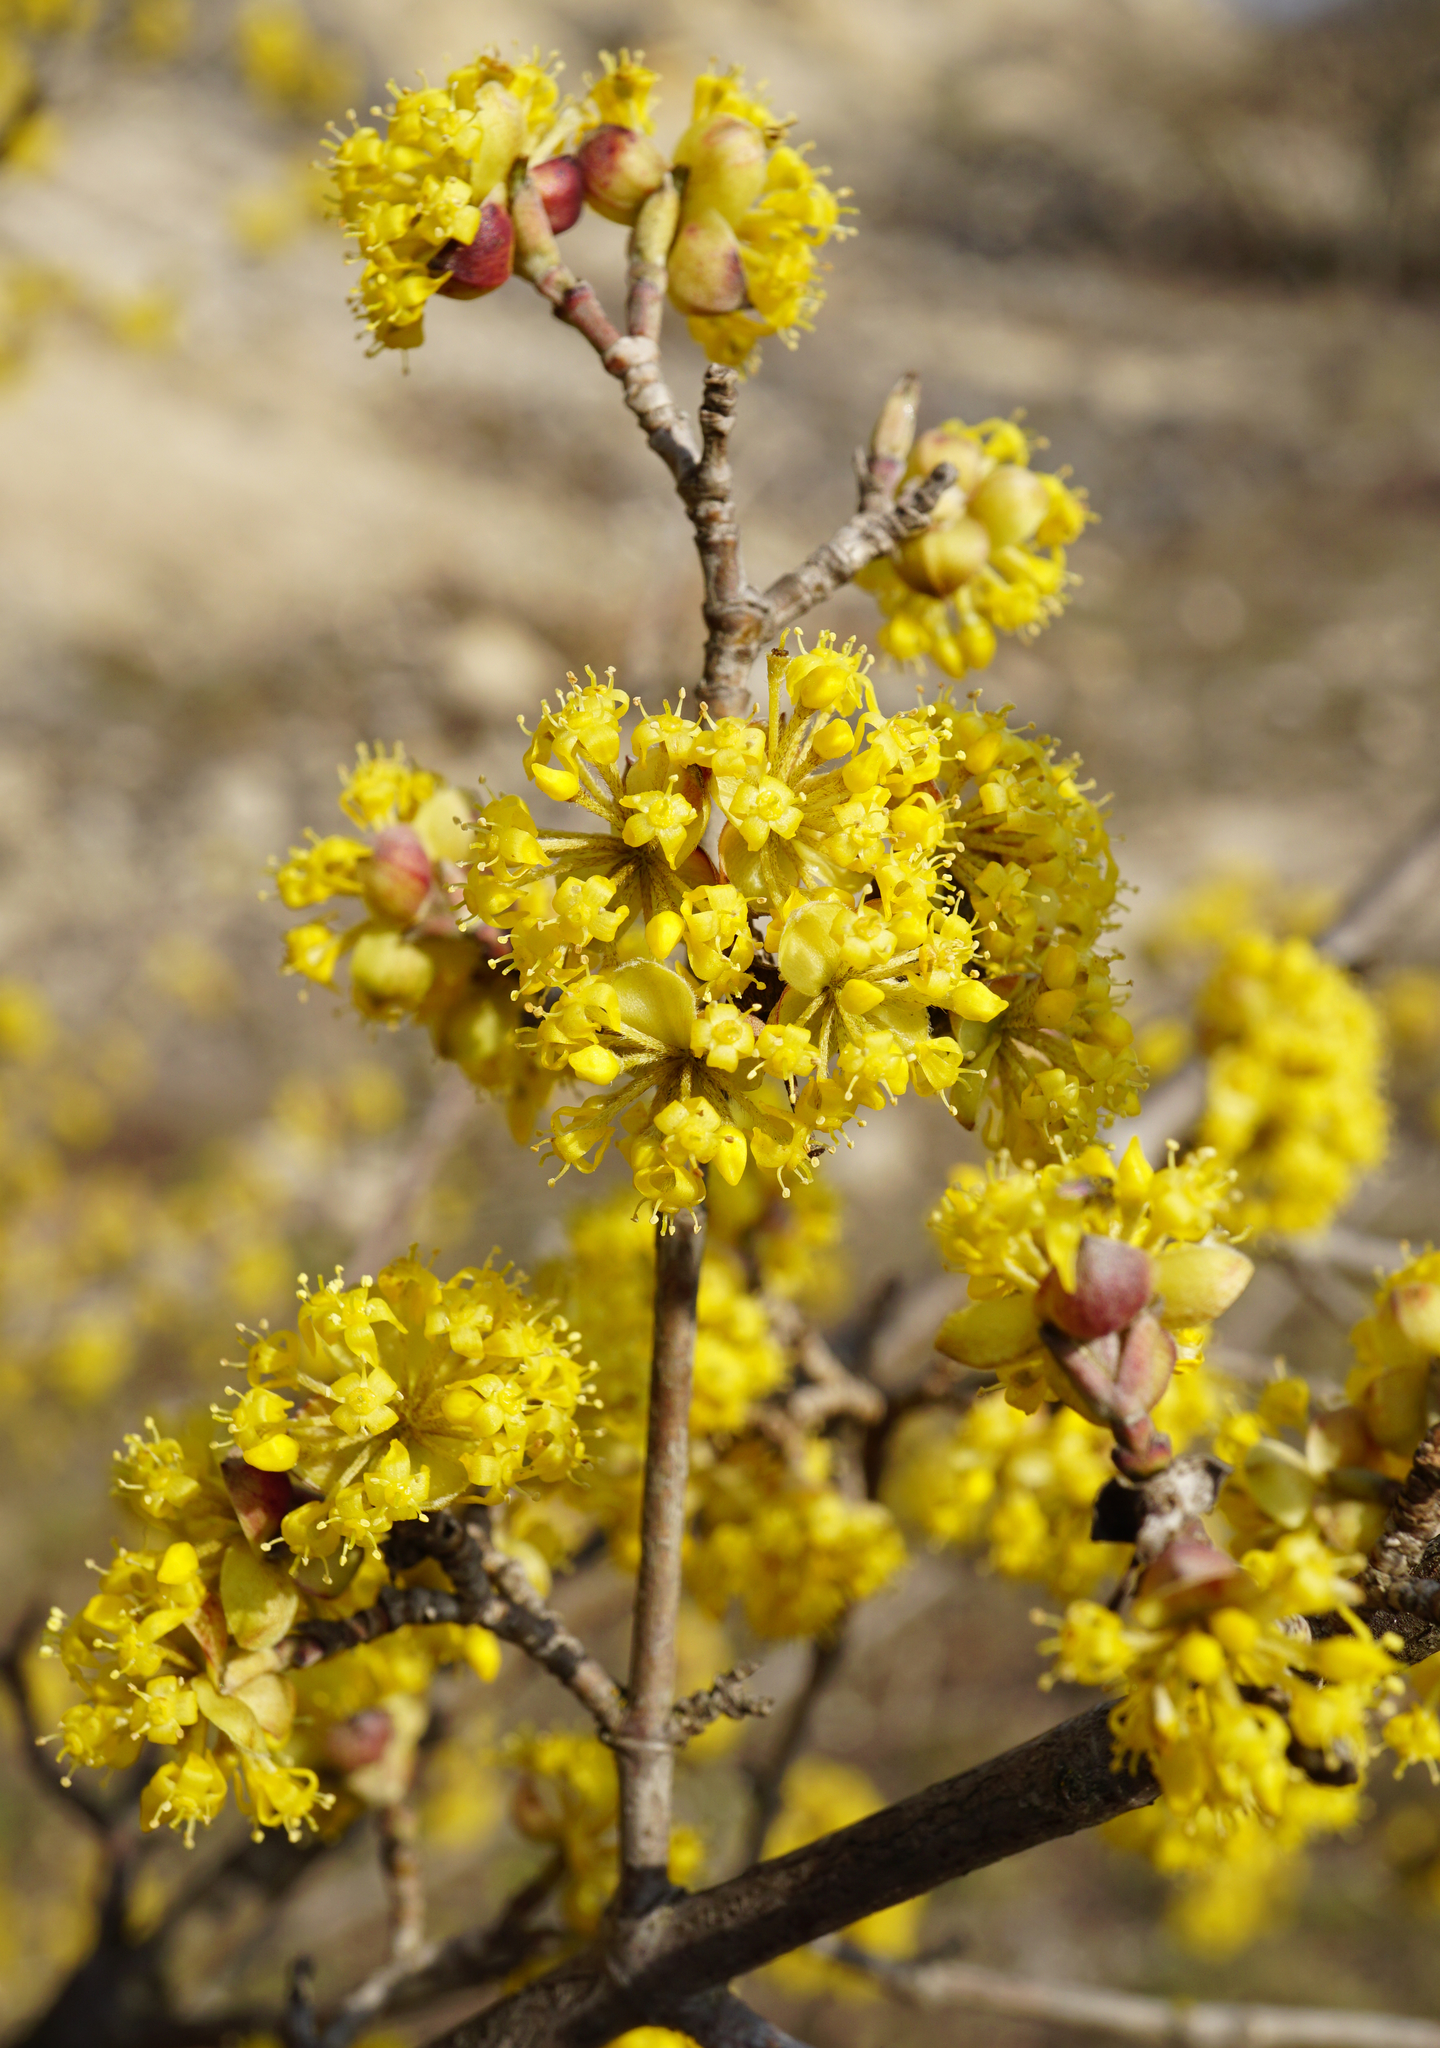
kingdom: Plantae
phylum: Tracheophyta
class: Magnoliopsida
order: Cornales
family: Cornaceae
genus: Cornus
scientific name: Cornus mas
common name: Cornelian-cherry
